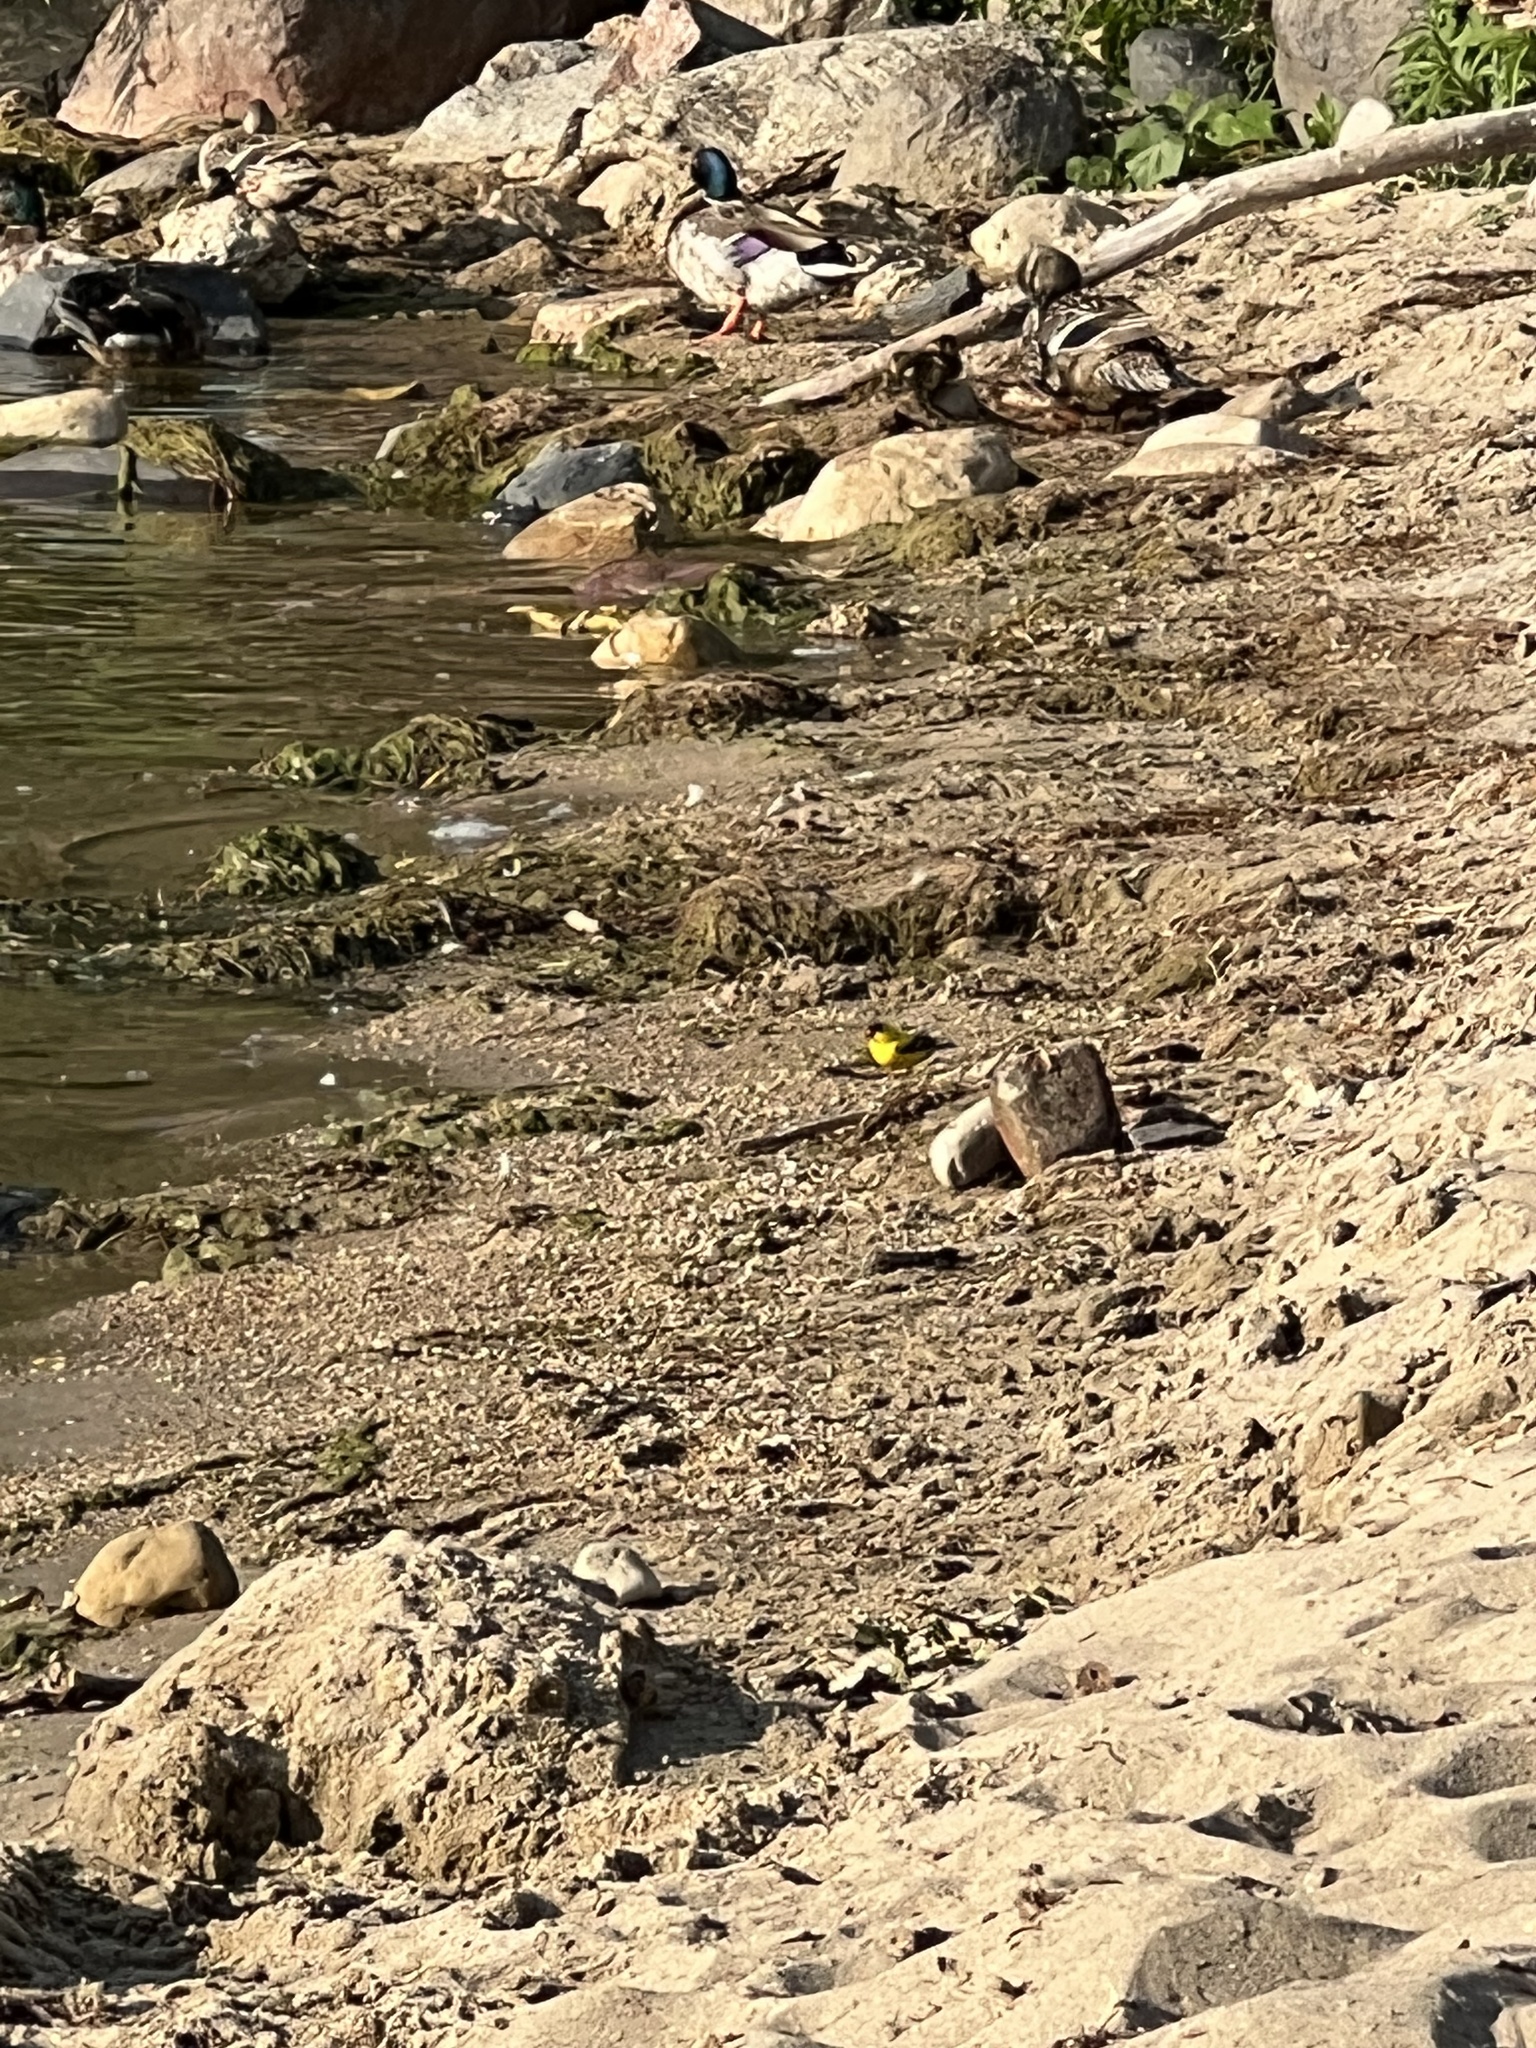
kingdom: Animalia
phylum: Chordata
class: Aves
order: Passeriformes
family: Fringillidae
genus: Spinus
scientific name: Spinus tristis
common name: American goldfinch
